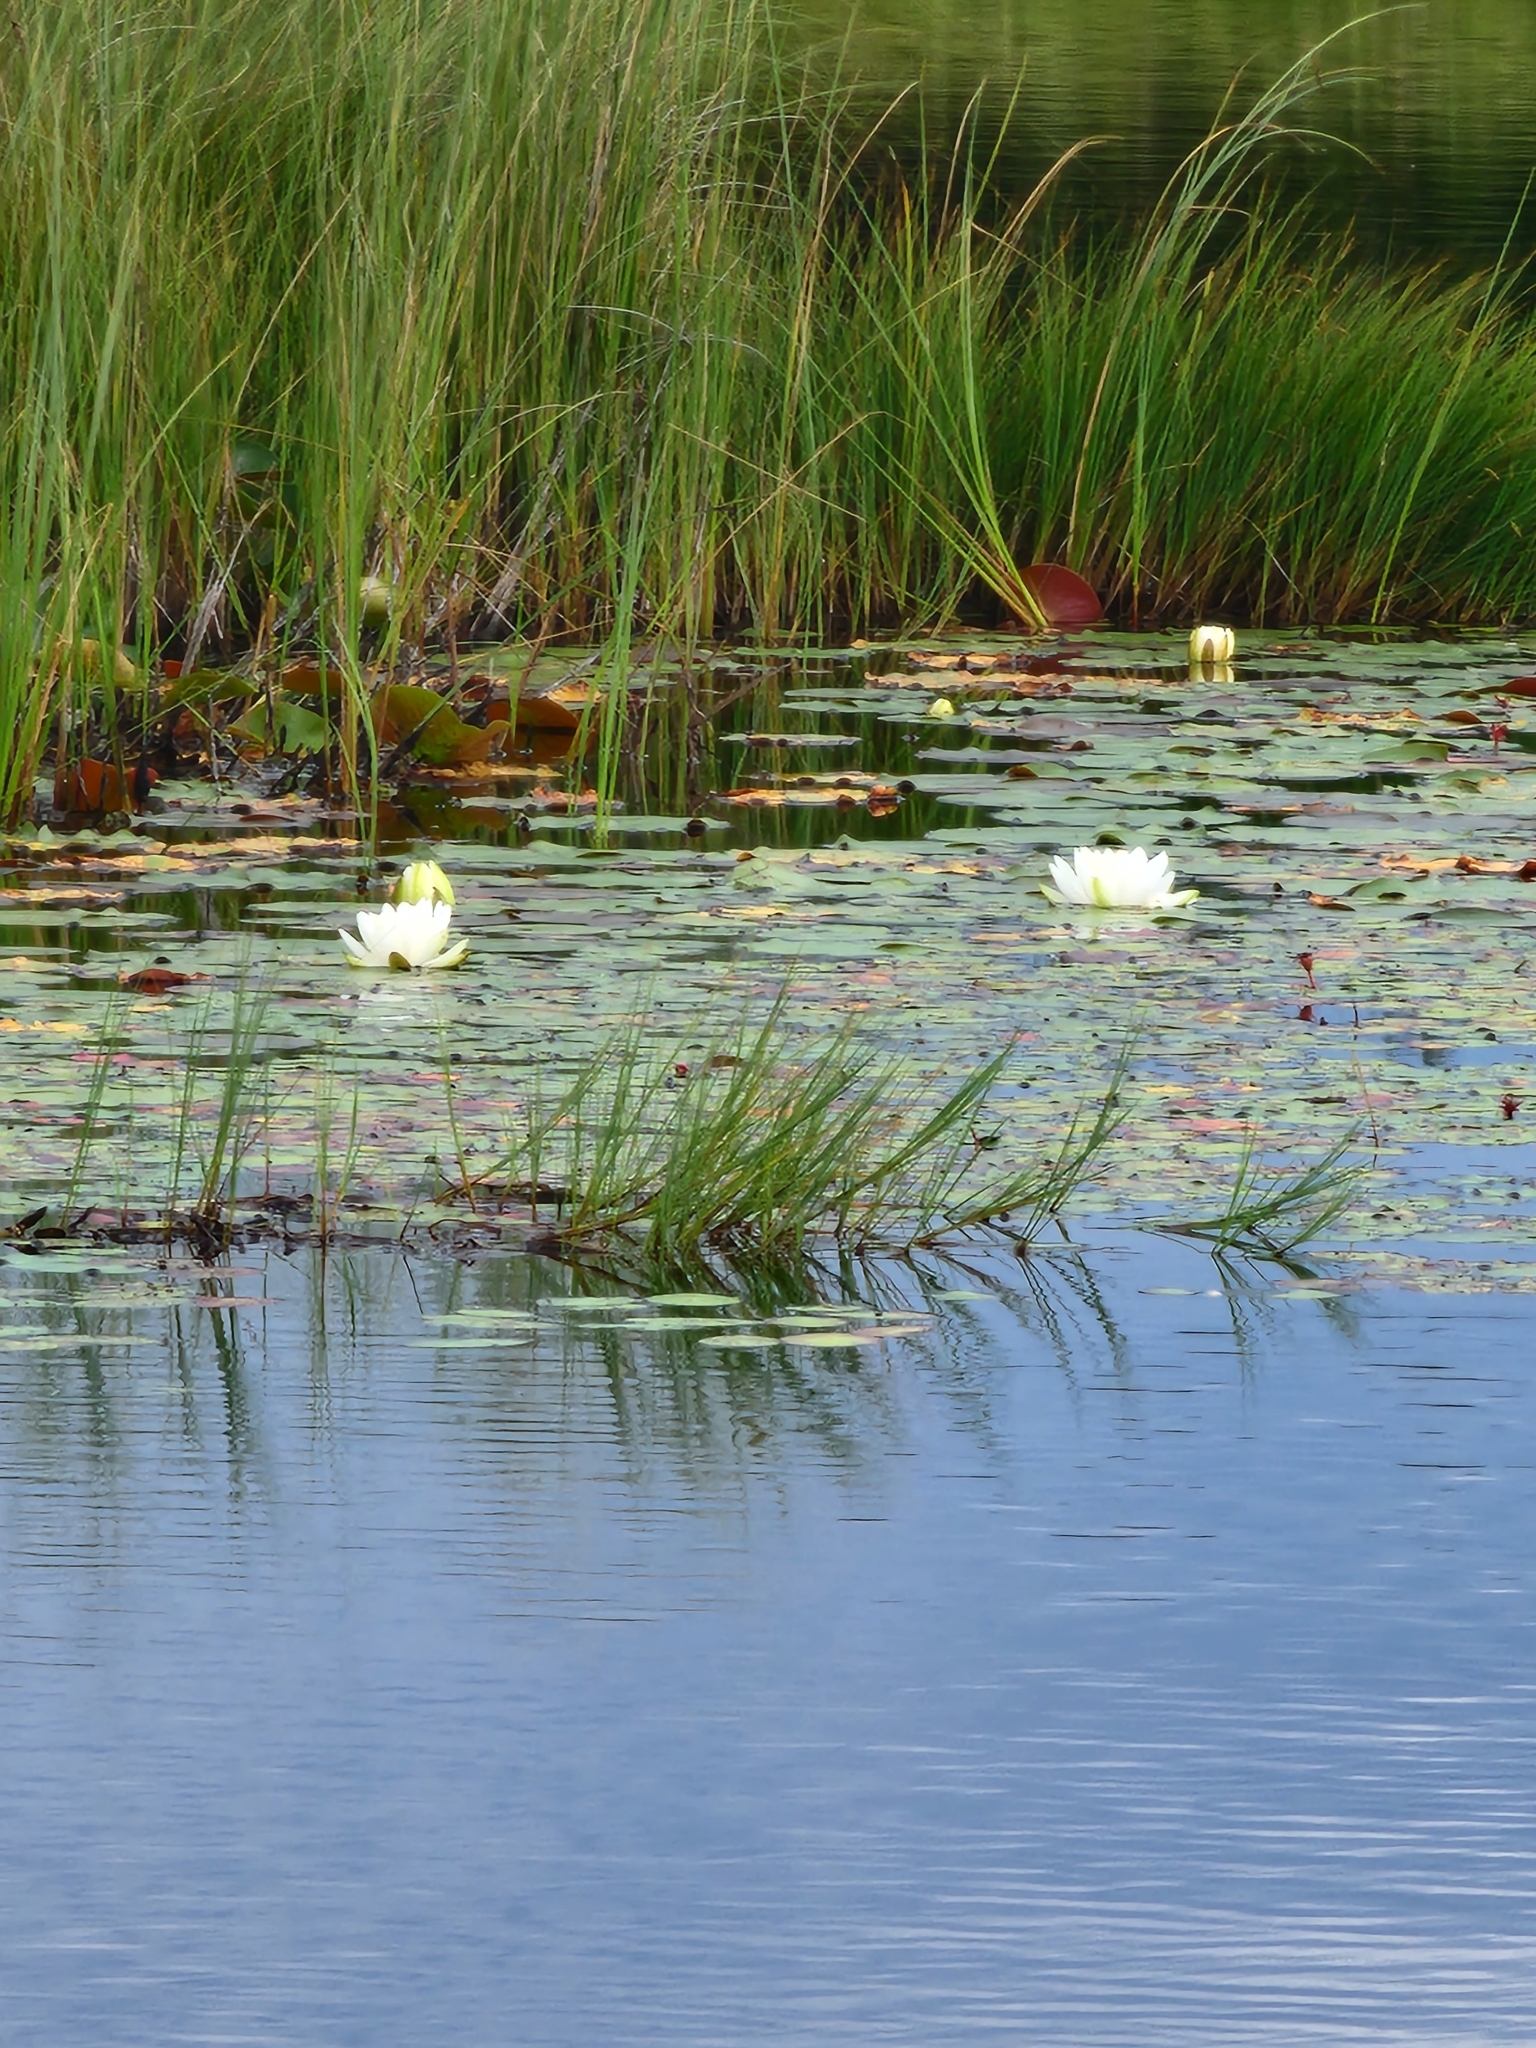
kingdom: Plantae
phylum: Tracheophyta
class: Magnoliopsida
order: Nymphaeales
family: Nymphaeaceae
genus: Nymphaea
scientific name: Nymphaea odorata
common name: Fragrant water-lily
